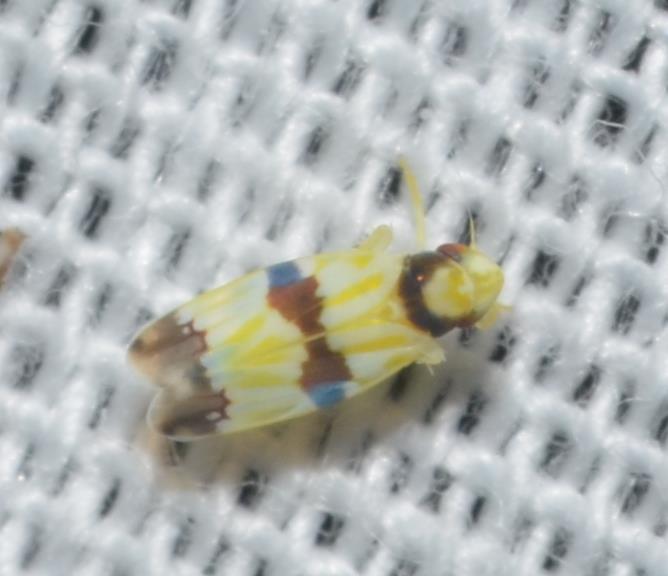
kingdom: Animalia
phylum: Arthropoda
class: Insecta
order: Hemiptera
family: Cicadellidae
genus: Erythroneura
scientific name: Erythroneura calycula
